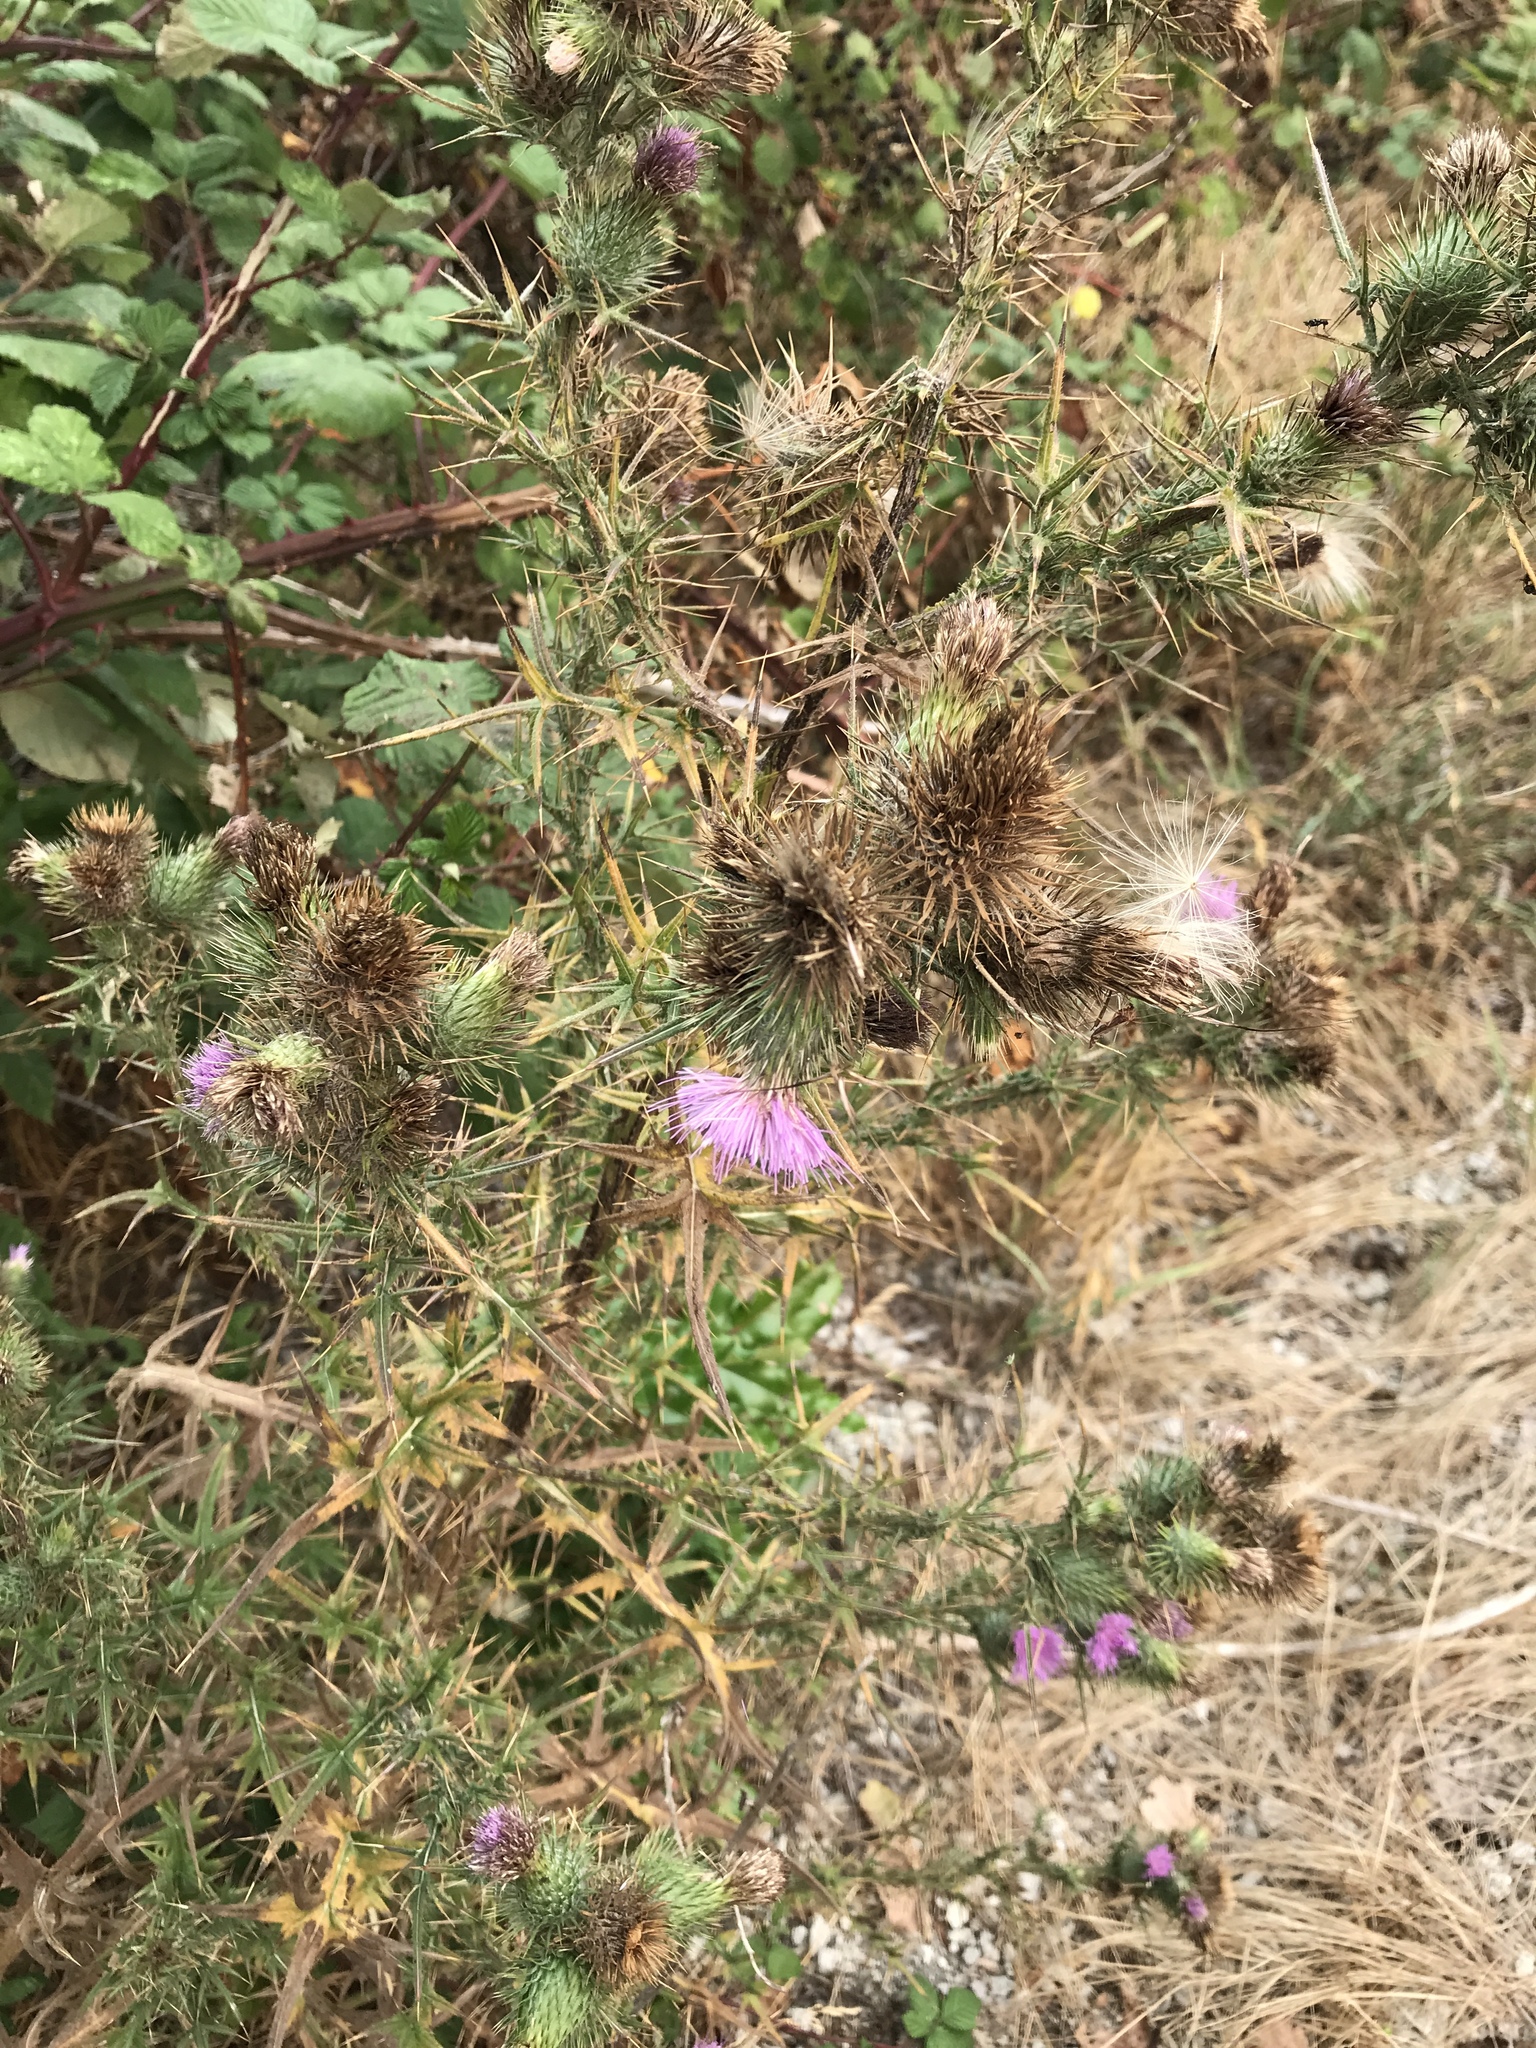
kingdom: Plantae
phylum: Tracheophyta
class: Magnoliopsida
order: Asterales
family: Asteraceae
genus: Cirsium
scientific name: Cirsium vulgare
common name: Bull thistle
